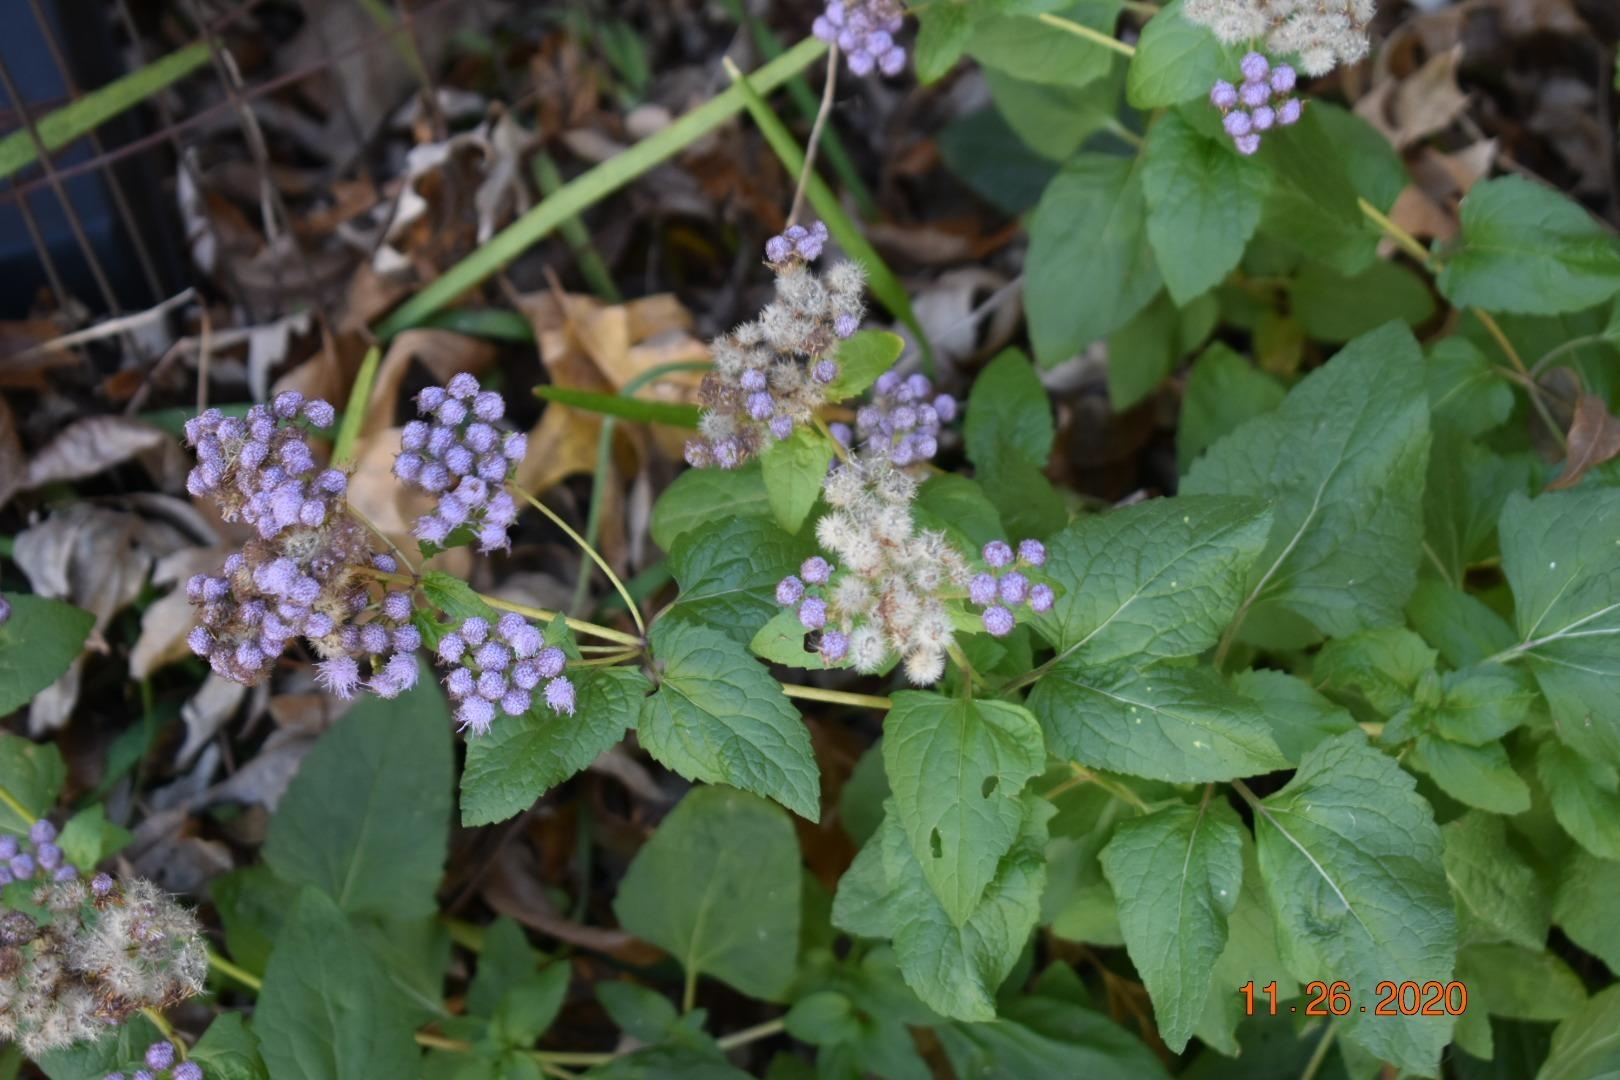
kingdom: Plantae
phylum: Tracheophyta
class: Magnoliopsida
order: Asterales
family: Asteraceae
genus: Conoclinium
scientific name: Conoclinium coelestinum
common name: Blue mistflower
